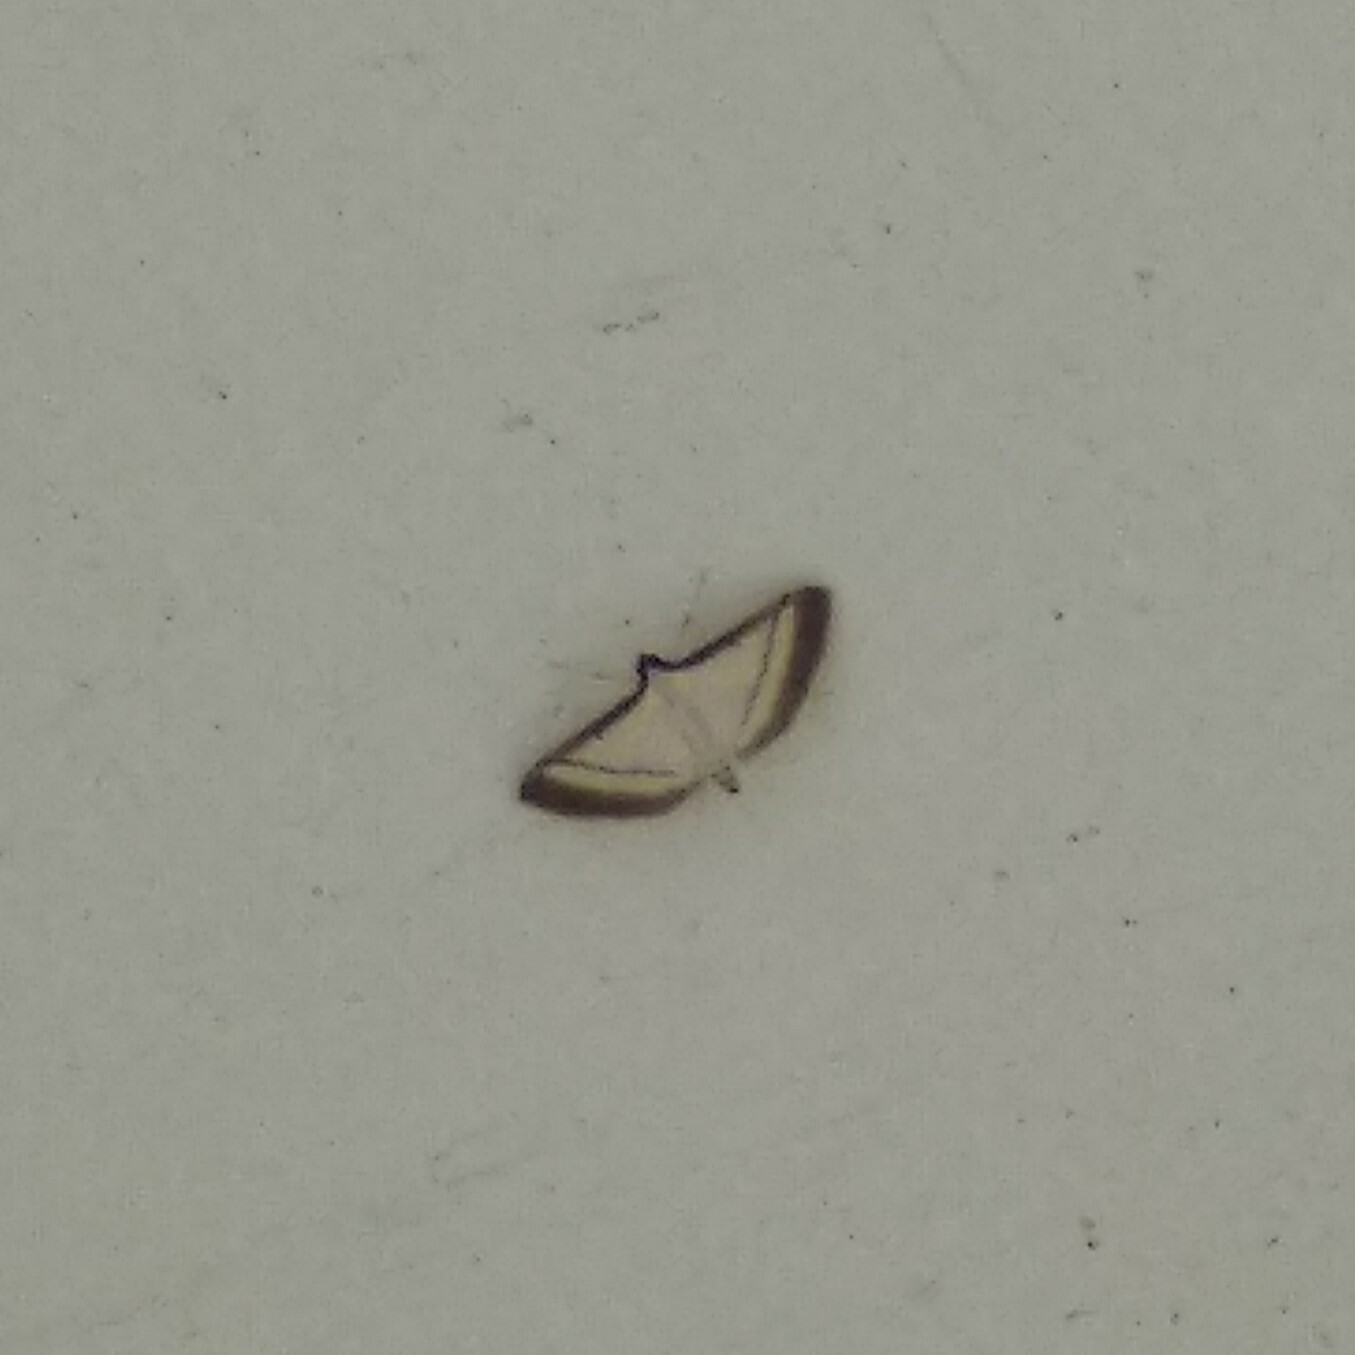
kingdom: Animalia
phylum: Arthropoda
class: Insecta
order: Lepidoptera
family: Crambidae
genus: Bradina
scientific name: Bradina diagonalis
